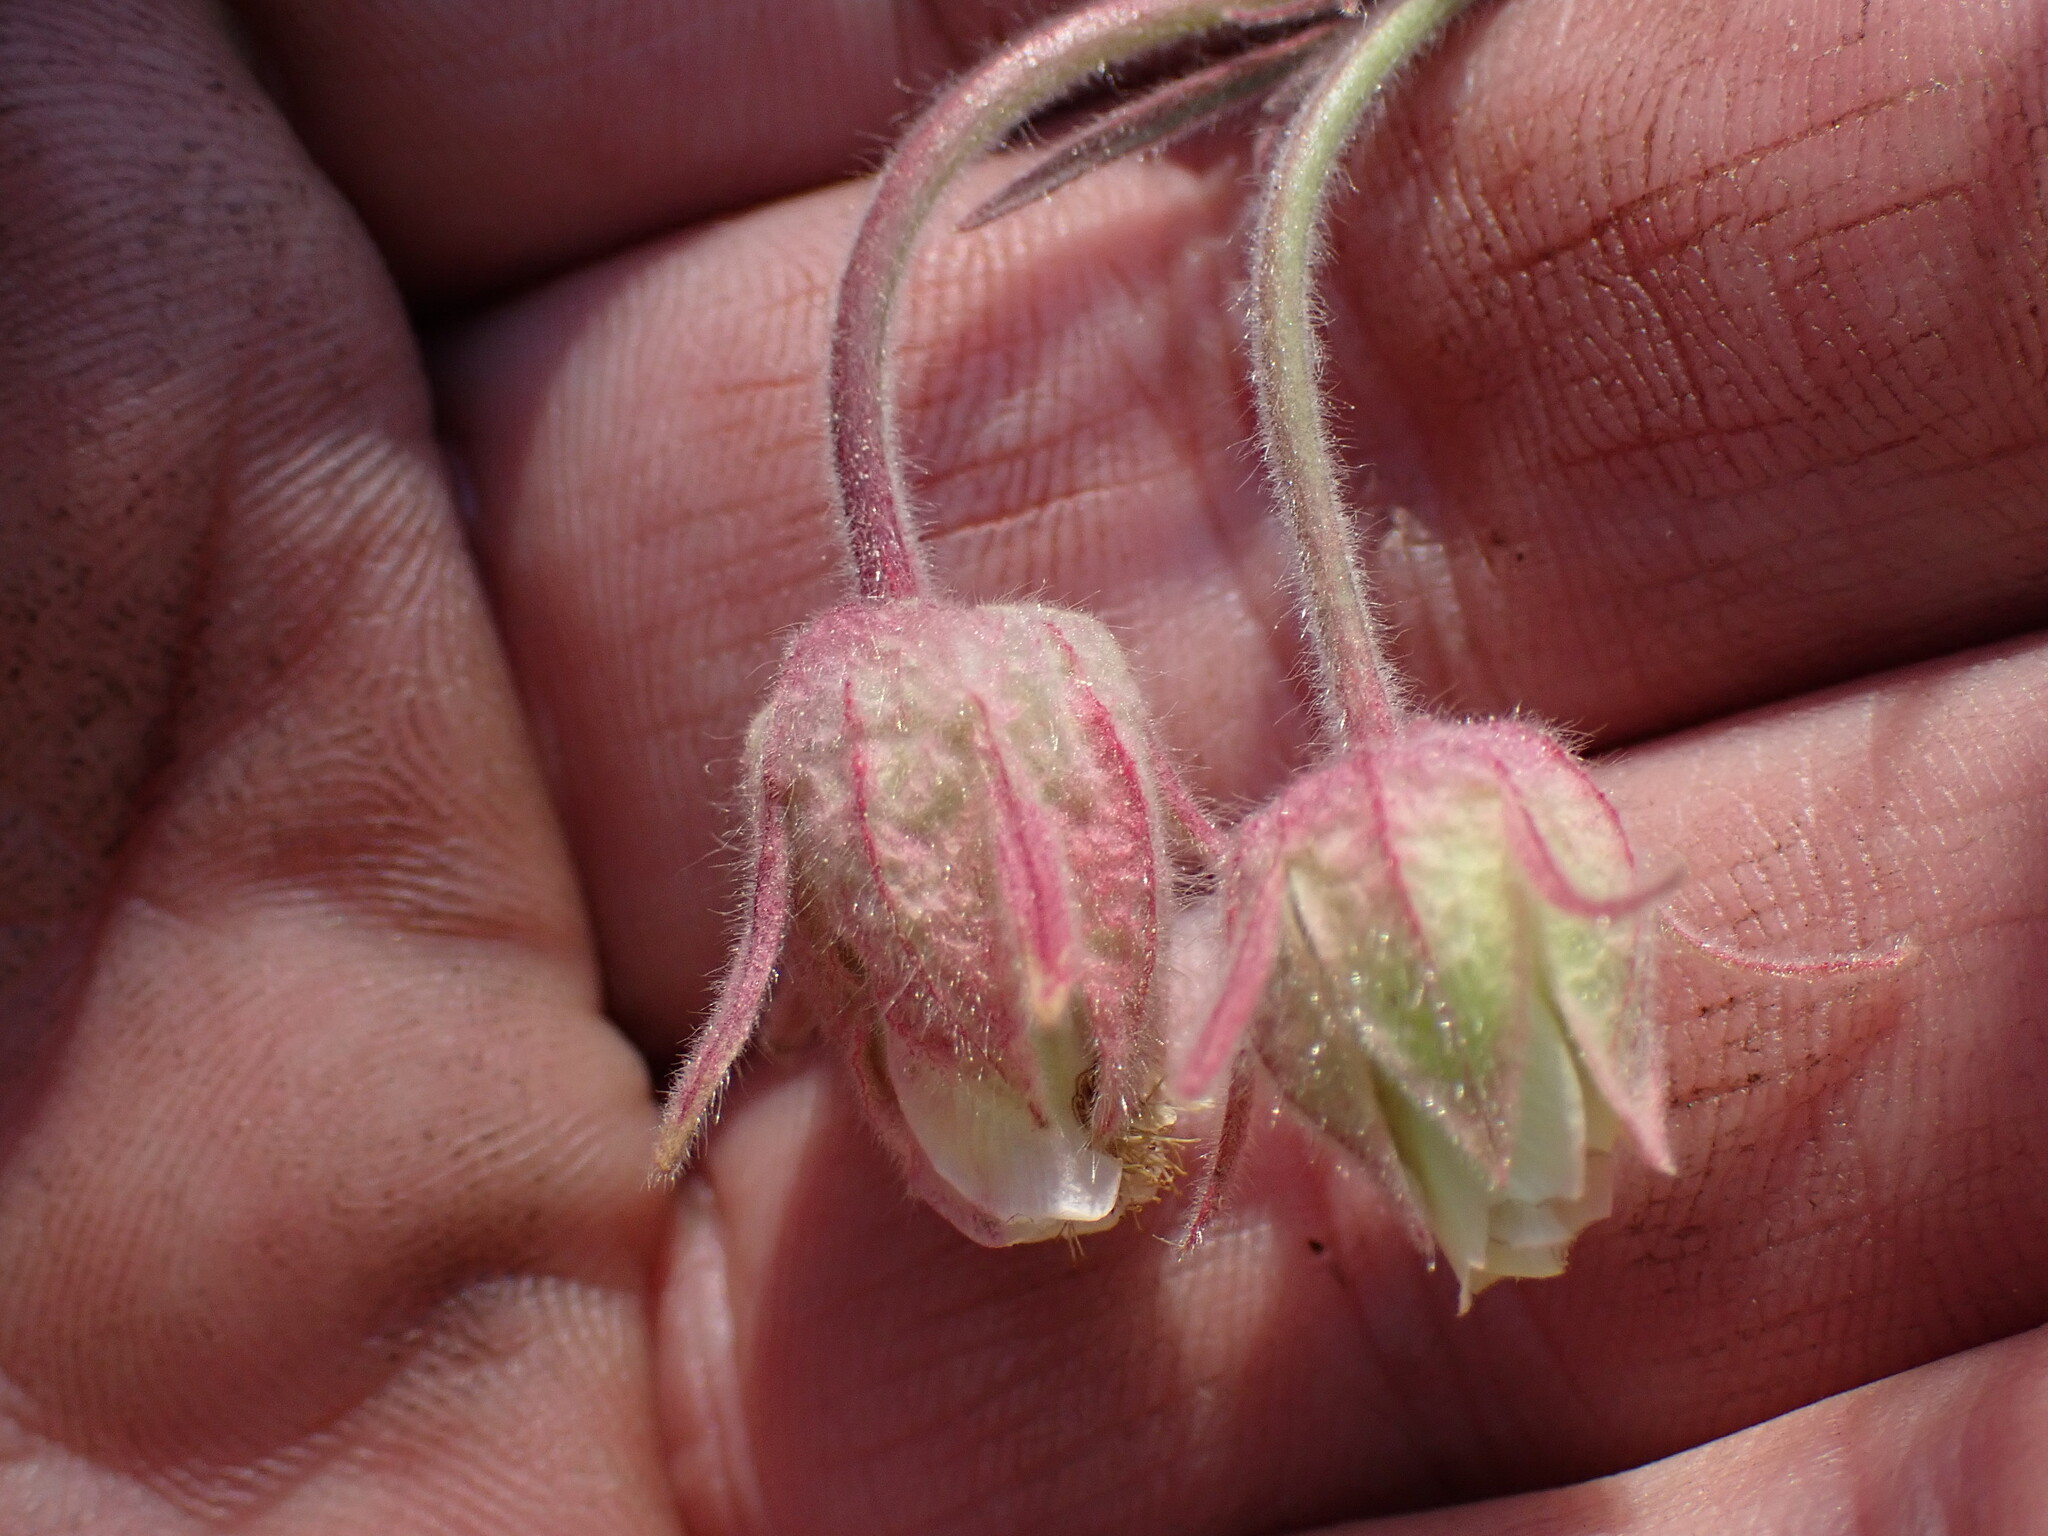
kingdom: Plantae
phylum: Tracheophyta
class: Magnoliopsida
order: Rosales
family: Rosaceae
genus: Geum
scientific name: Geum triflorum
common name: Old man's whiskers
